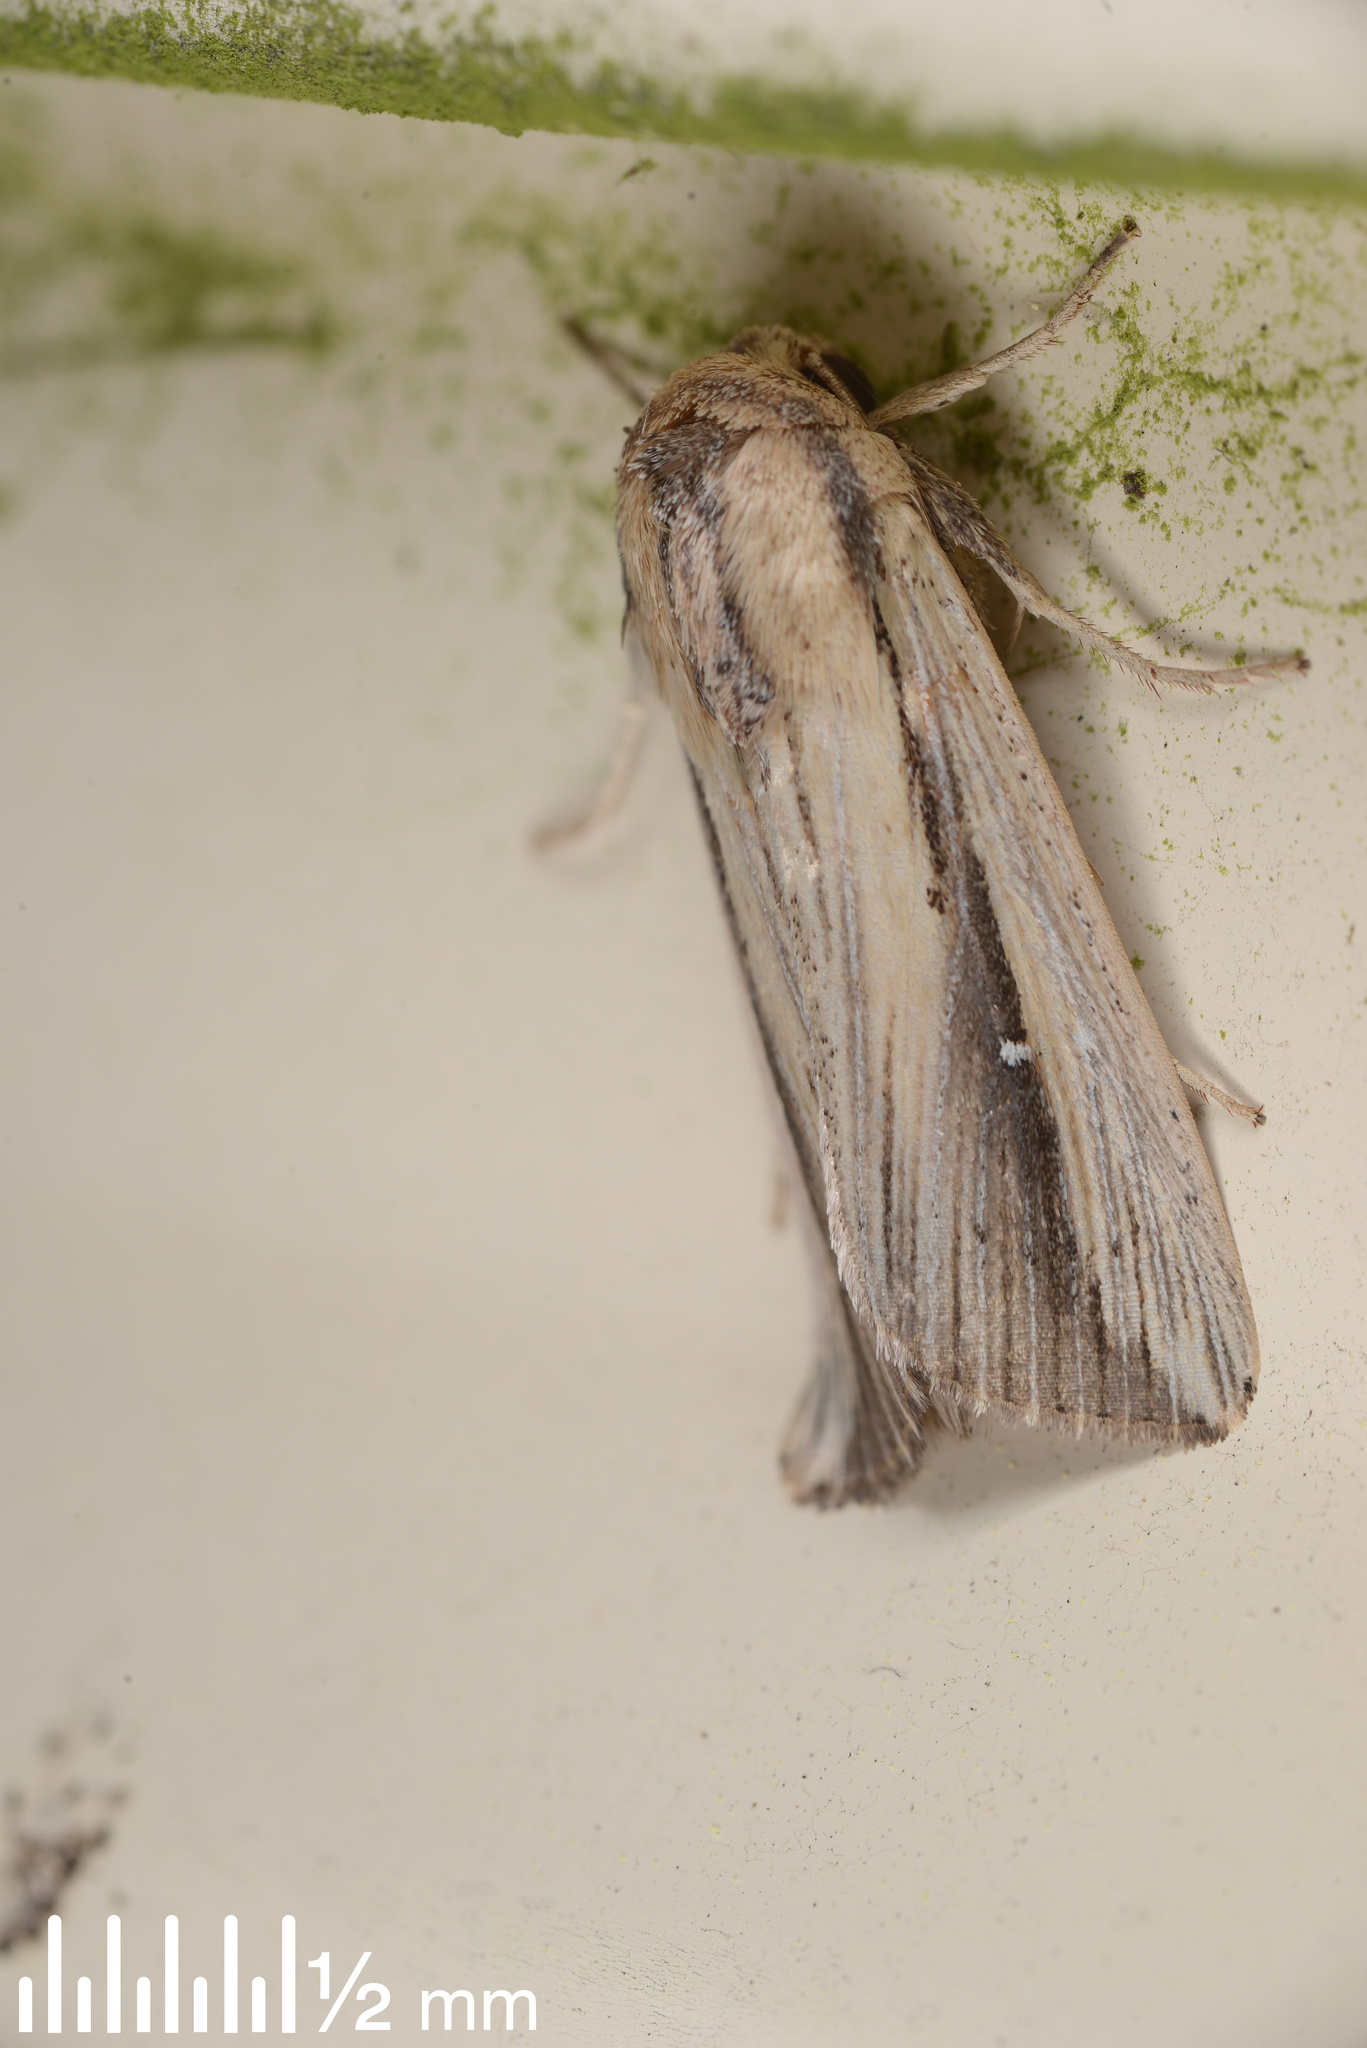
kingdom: Animalia
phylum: Arthropoda
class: Insecta
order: Lepidoptera
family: Noctuidae
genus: Leucania
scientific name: Leucania stenographa
